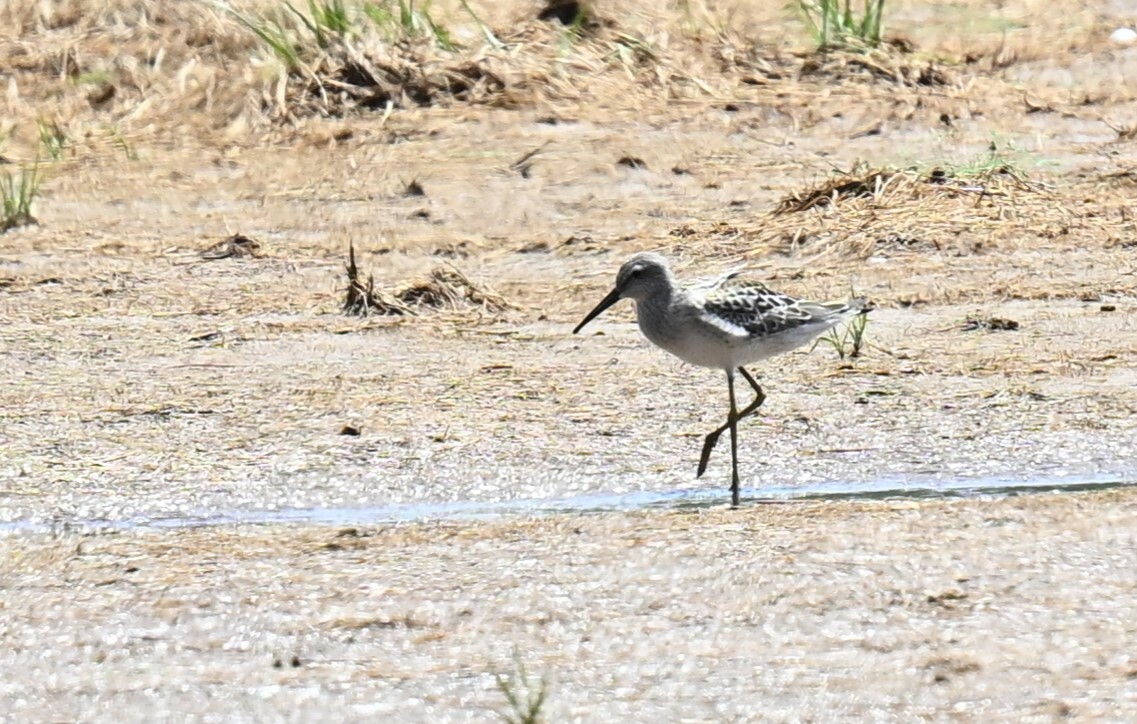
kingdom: Animalia
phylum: Chordata
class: Aves
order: Charadriiformes
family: Scolopacidae
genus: Calidris
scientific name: Calidris himantopus
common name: Stilt sandpiper
